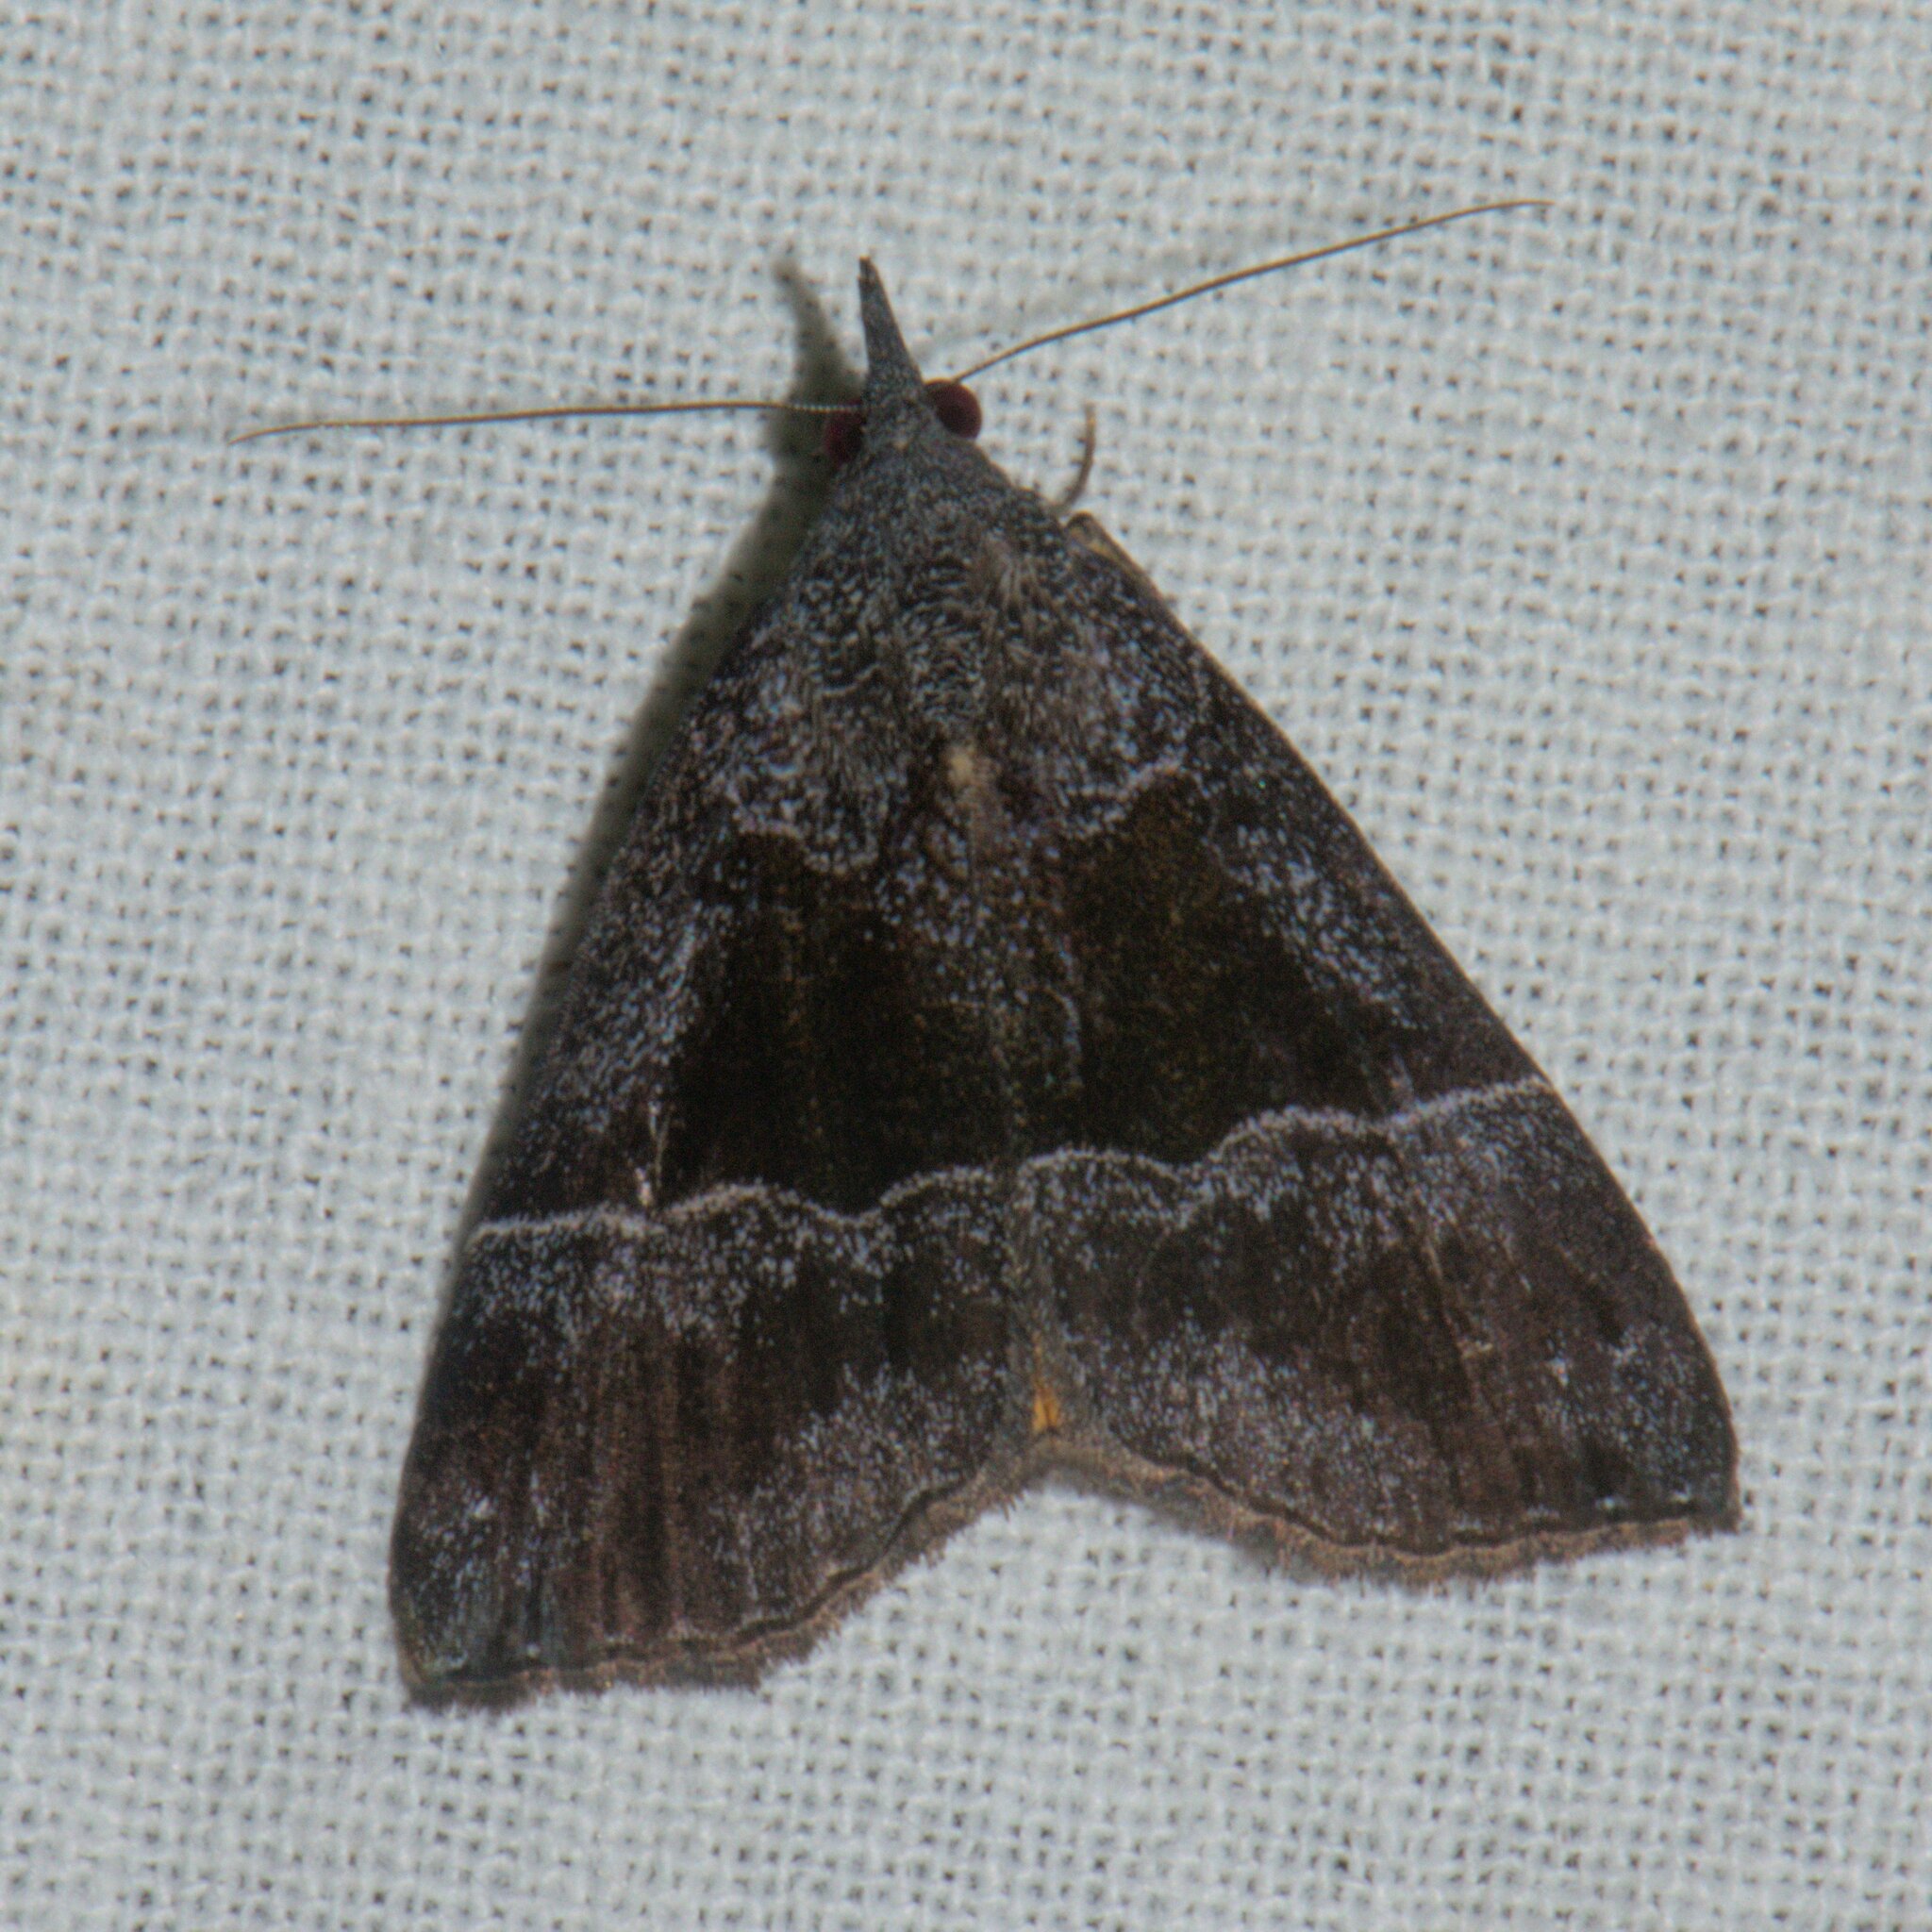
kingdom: Animalia
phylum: Arthropoda
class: Insecta
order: Lepidoptera
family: Erebidae
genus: Hypena
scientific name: Hypena amica
